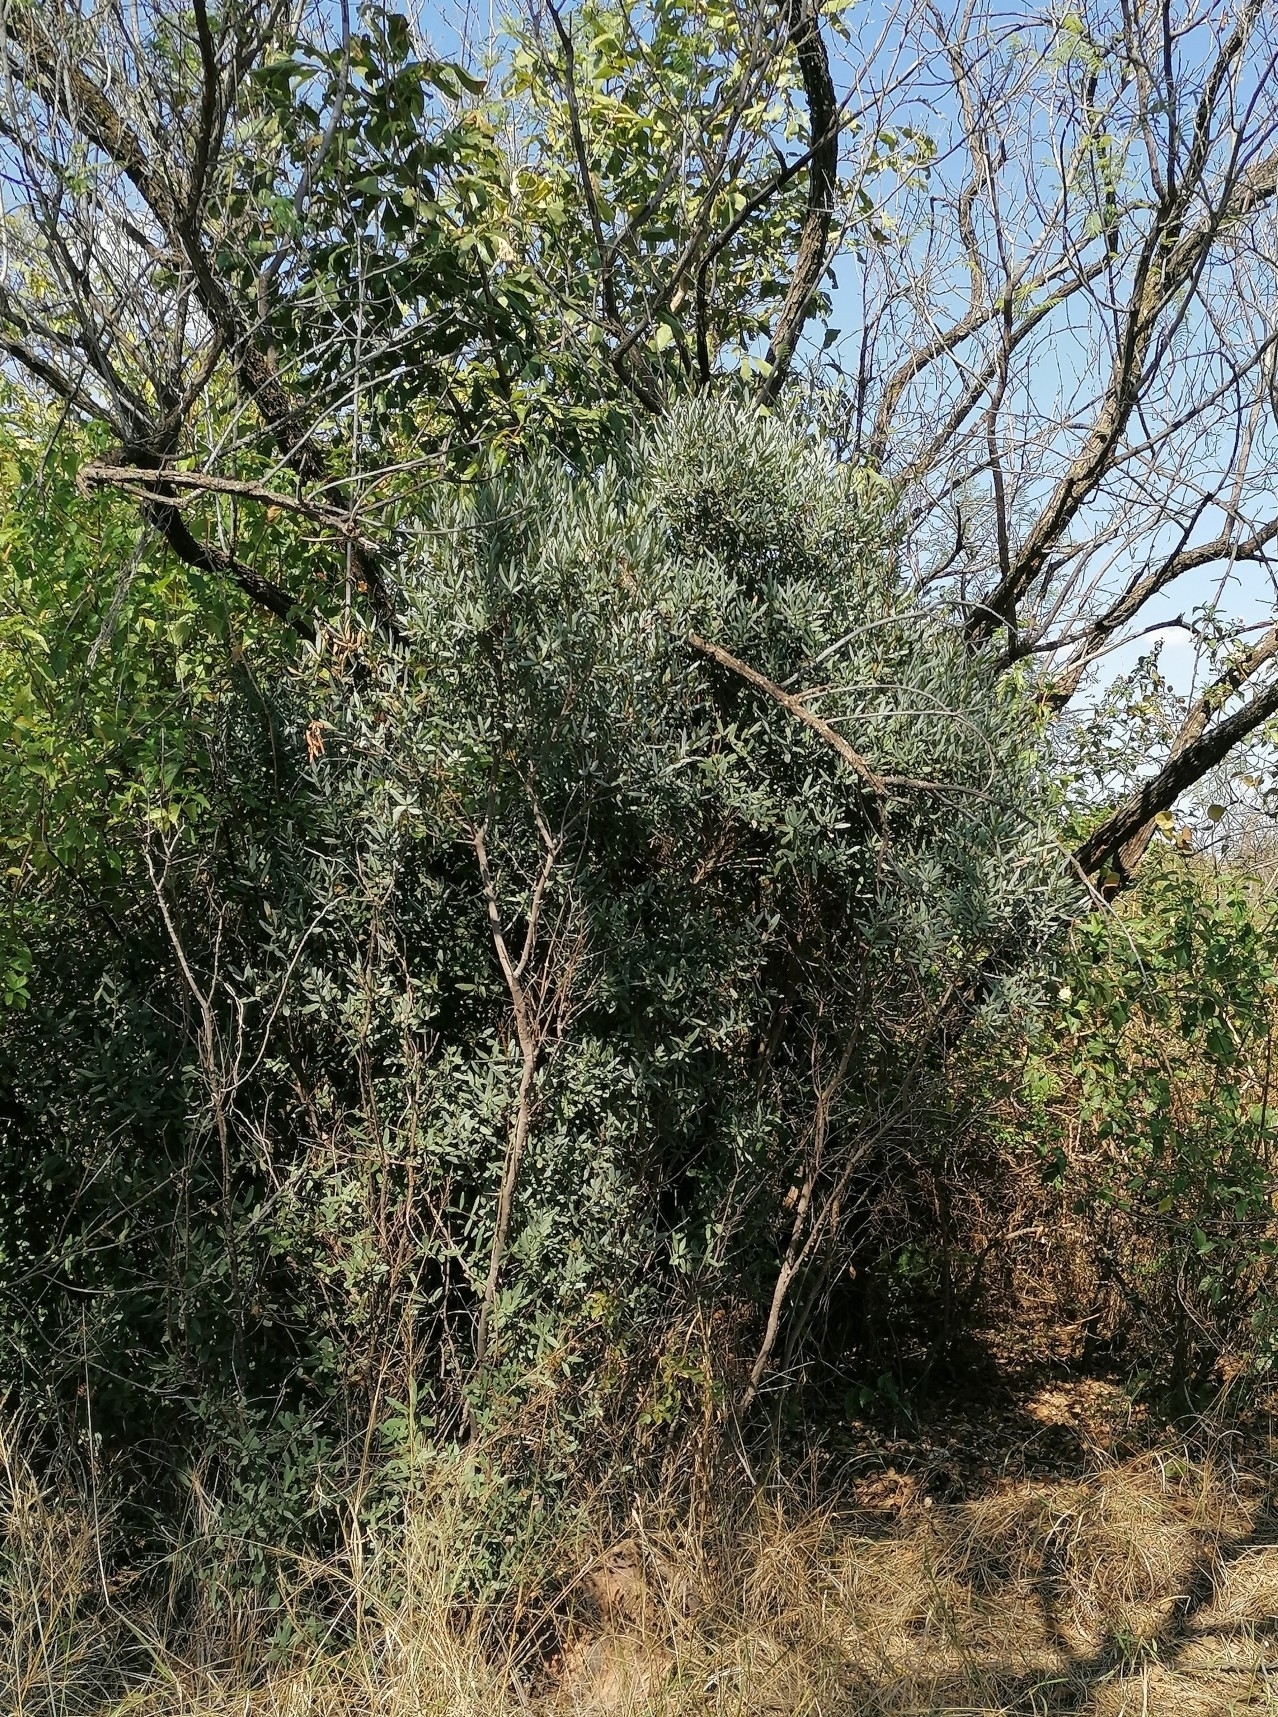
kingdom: Plantae
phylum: Tracheophyta
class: Magnoliopsida
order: Ericales
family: Ebenaceae
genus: Euclea
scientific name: Euclea crispa
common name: Blue guarri
